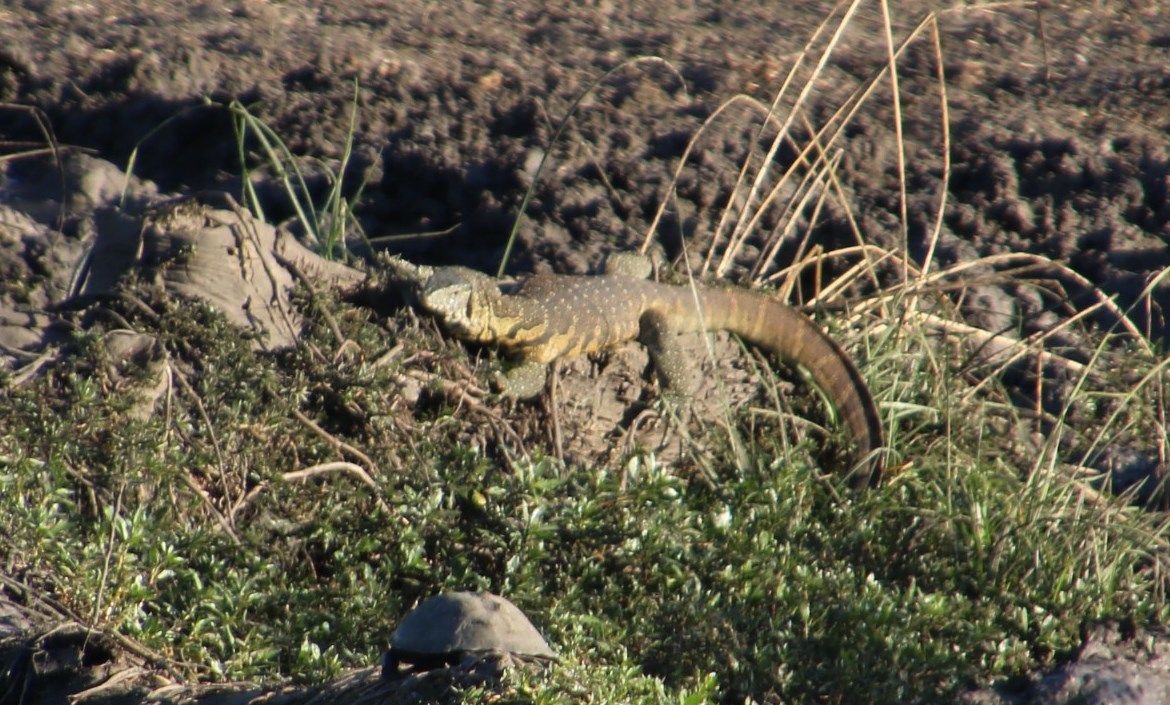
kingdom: Animalia
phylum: Chordata
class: Squamata
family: Varanidae
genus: Varanus
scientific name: Varanus niloticus
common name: Nile monitor
